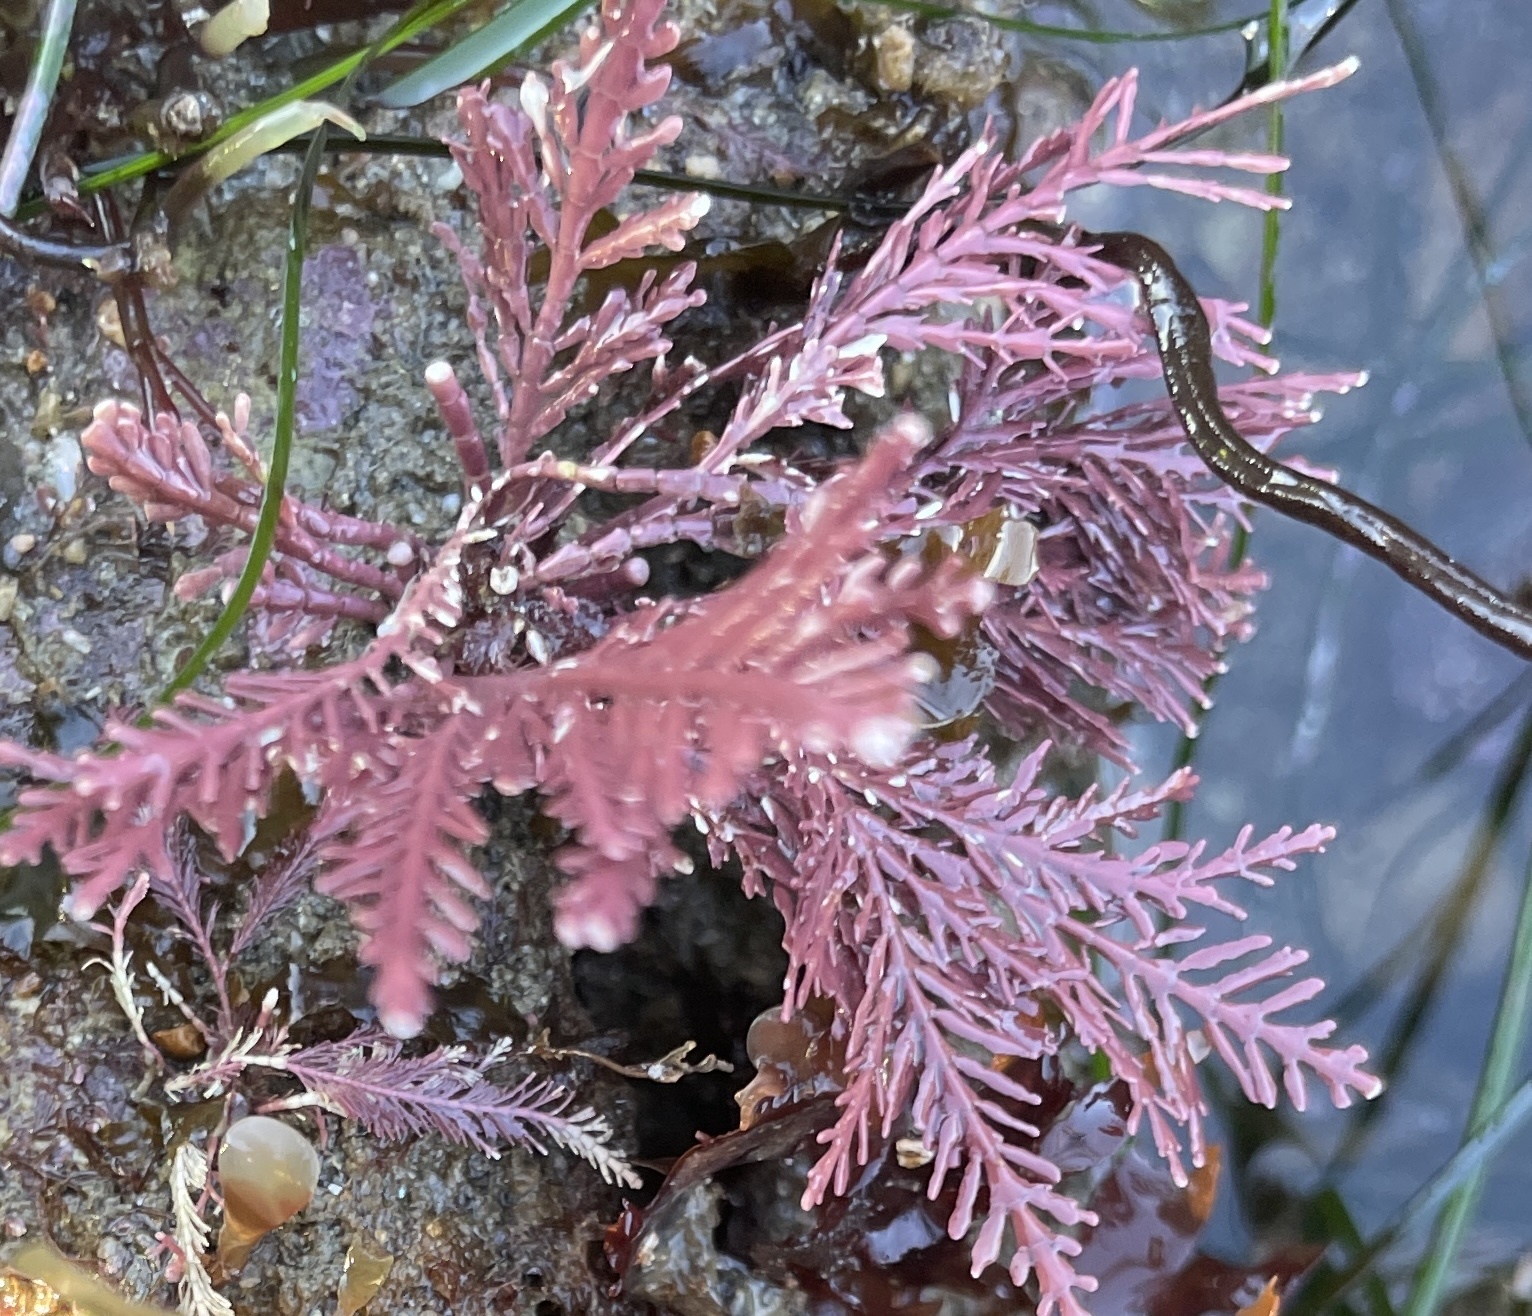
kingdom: Plantae
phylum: Rhodophyta
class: Florideophyceae
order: Corallinales
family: Corallinaceae
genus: Corallina
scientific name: Corallina officinalis
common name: Coral weed
